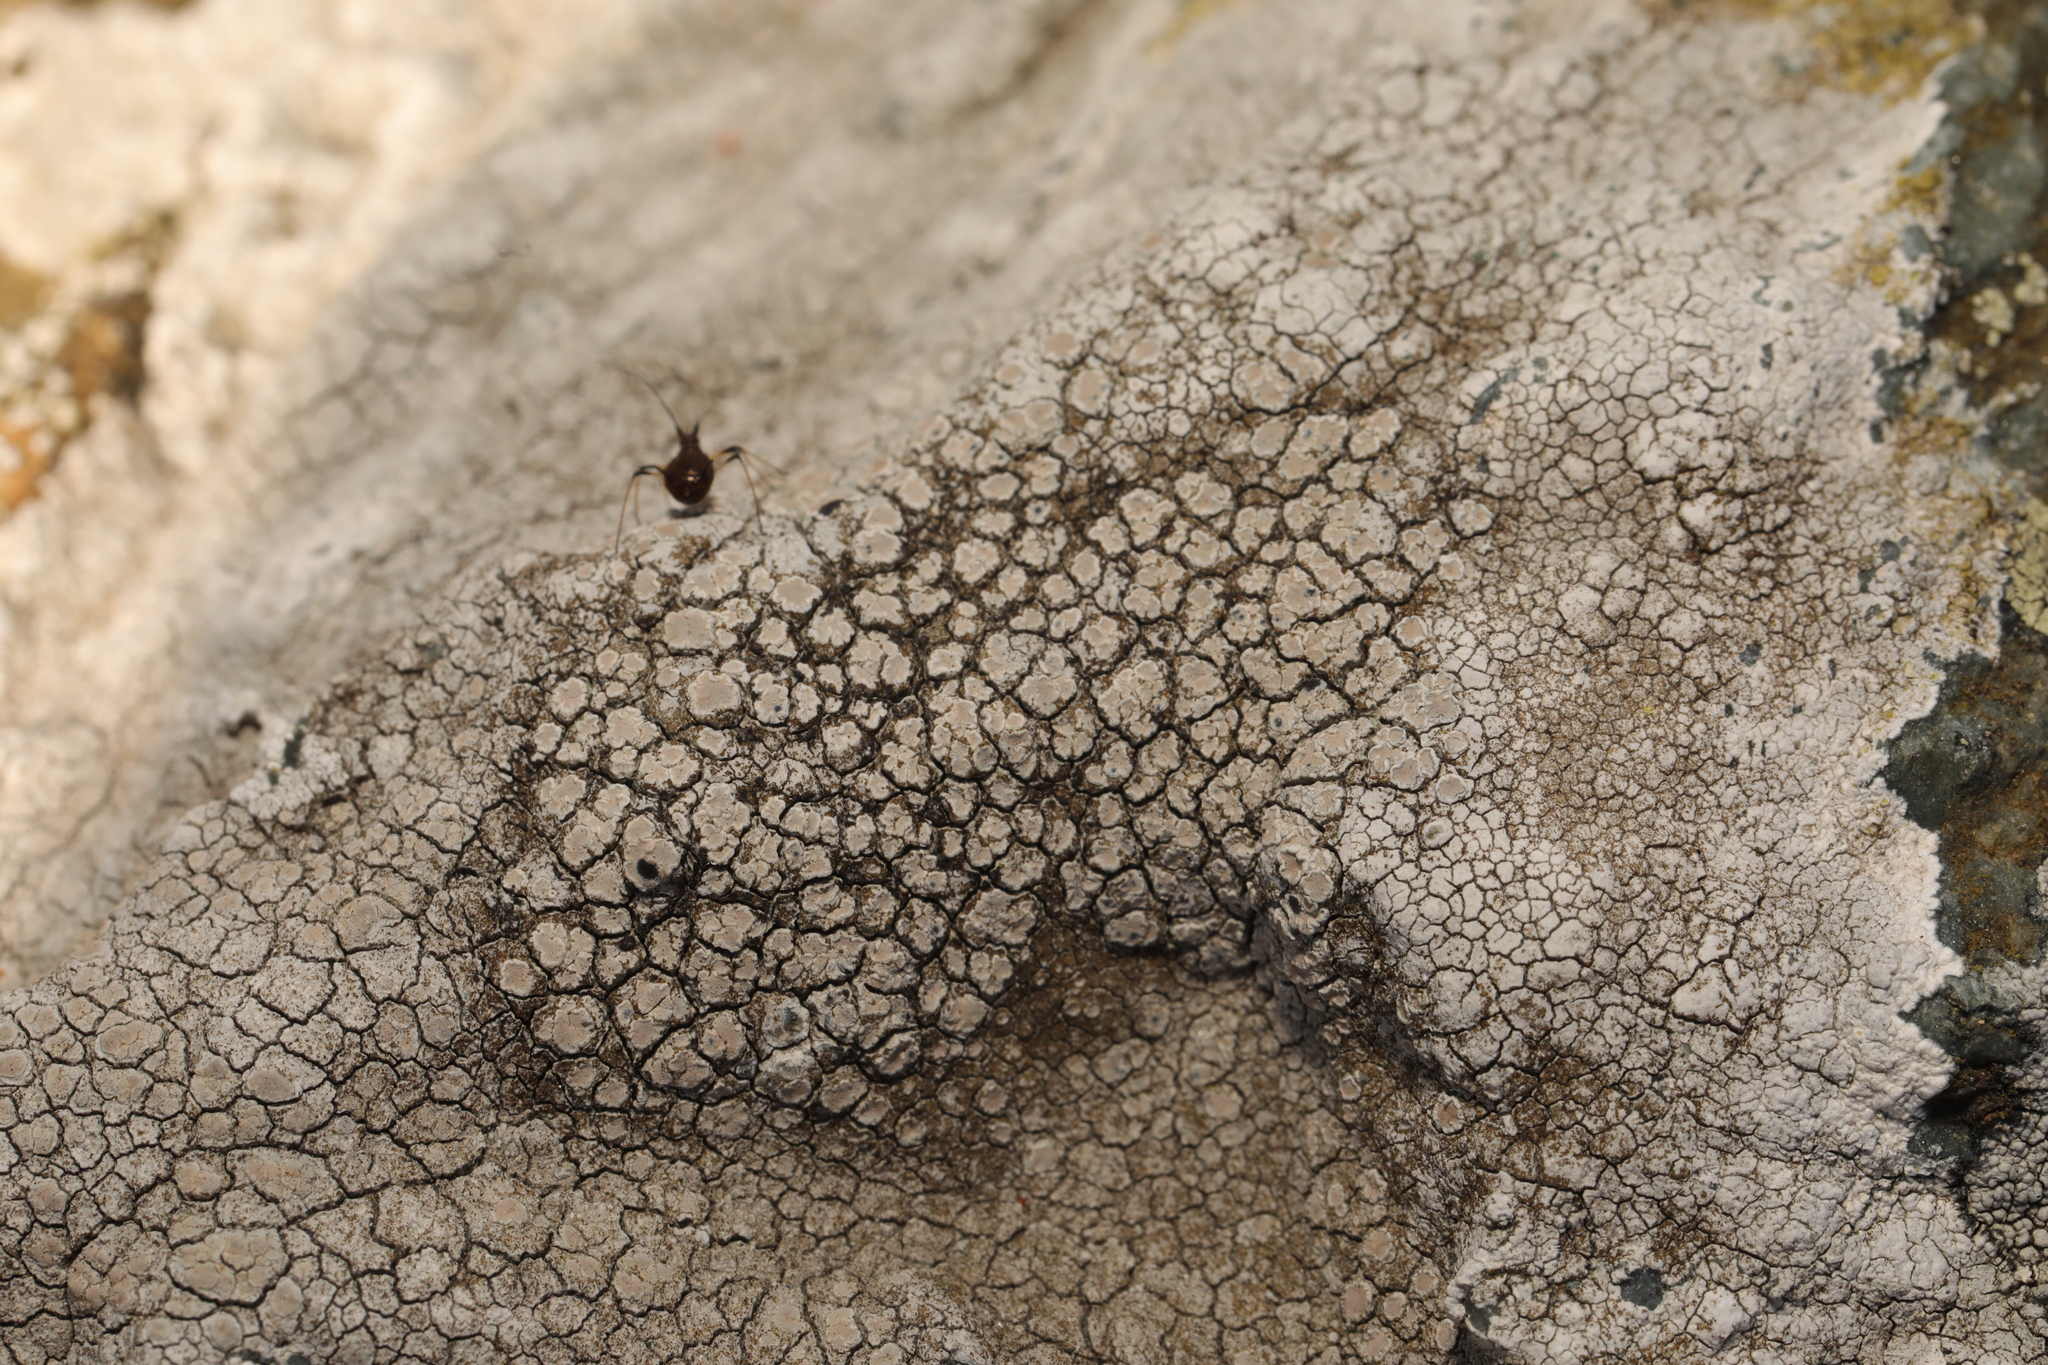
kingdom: Fungi
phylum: Ascomycota
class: Lecanoromycetes
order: Lecanorales
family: Lecanoraceae
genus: Glaucomaria
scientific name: Glaucomaria rupicola
